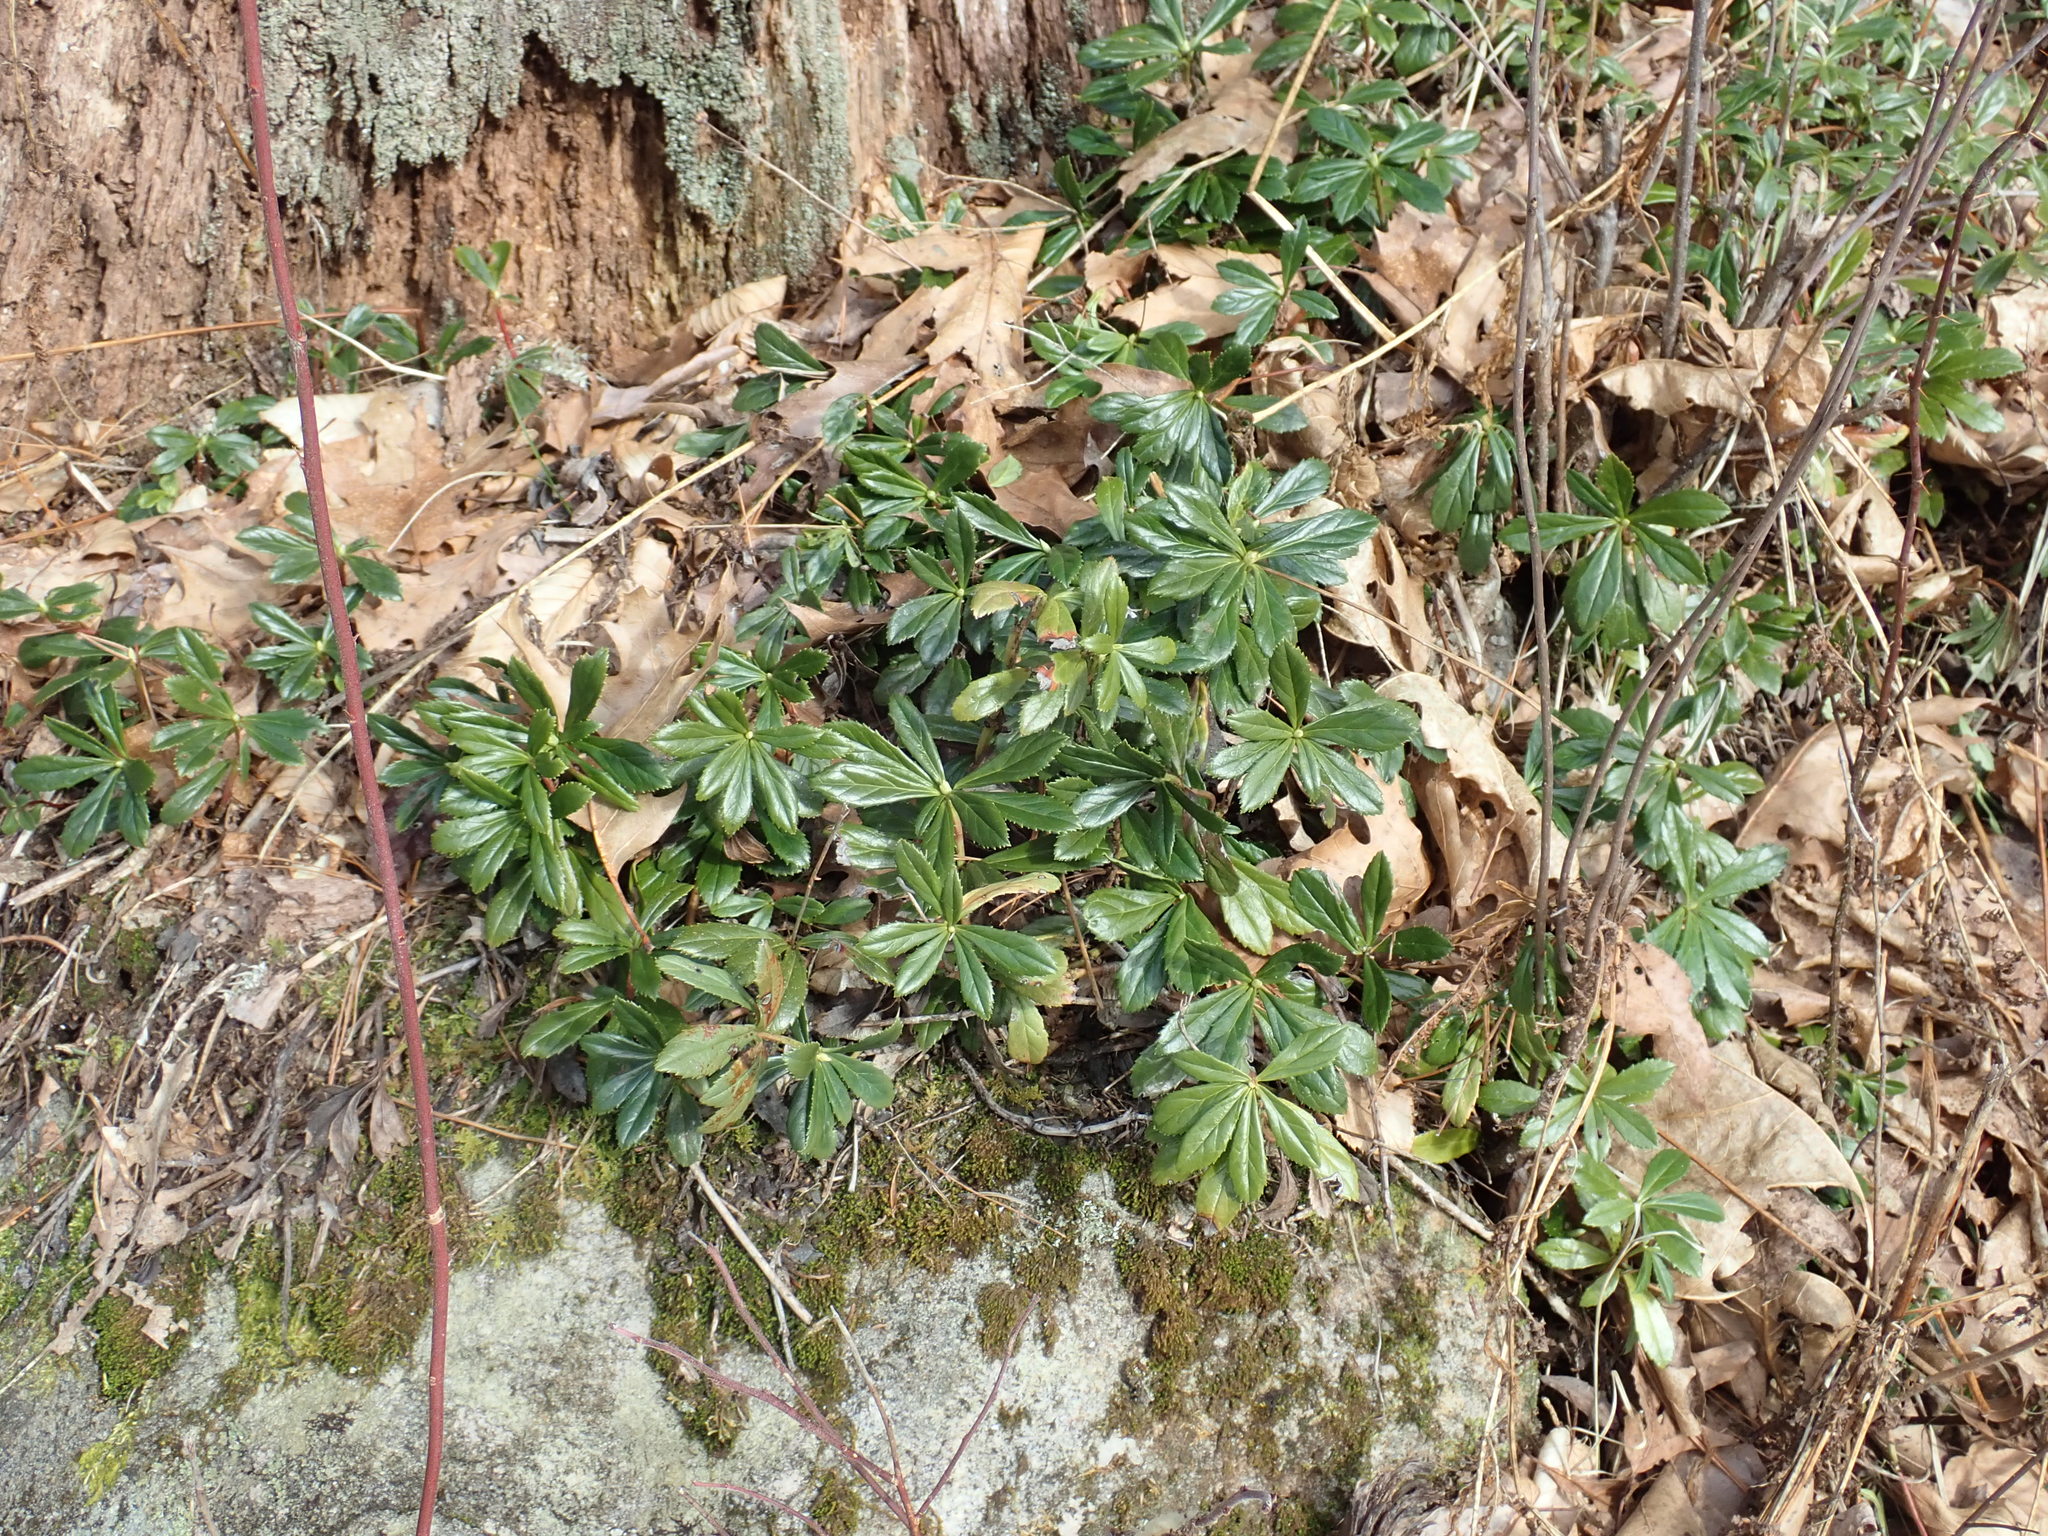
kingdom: Plantae
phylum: Tracheophyta
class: Magnoliopsida
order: Ericales
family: Ericaceae
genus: Chimaphila
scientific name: Chimaphila umbellata
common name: Pipsissewa
